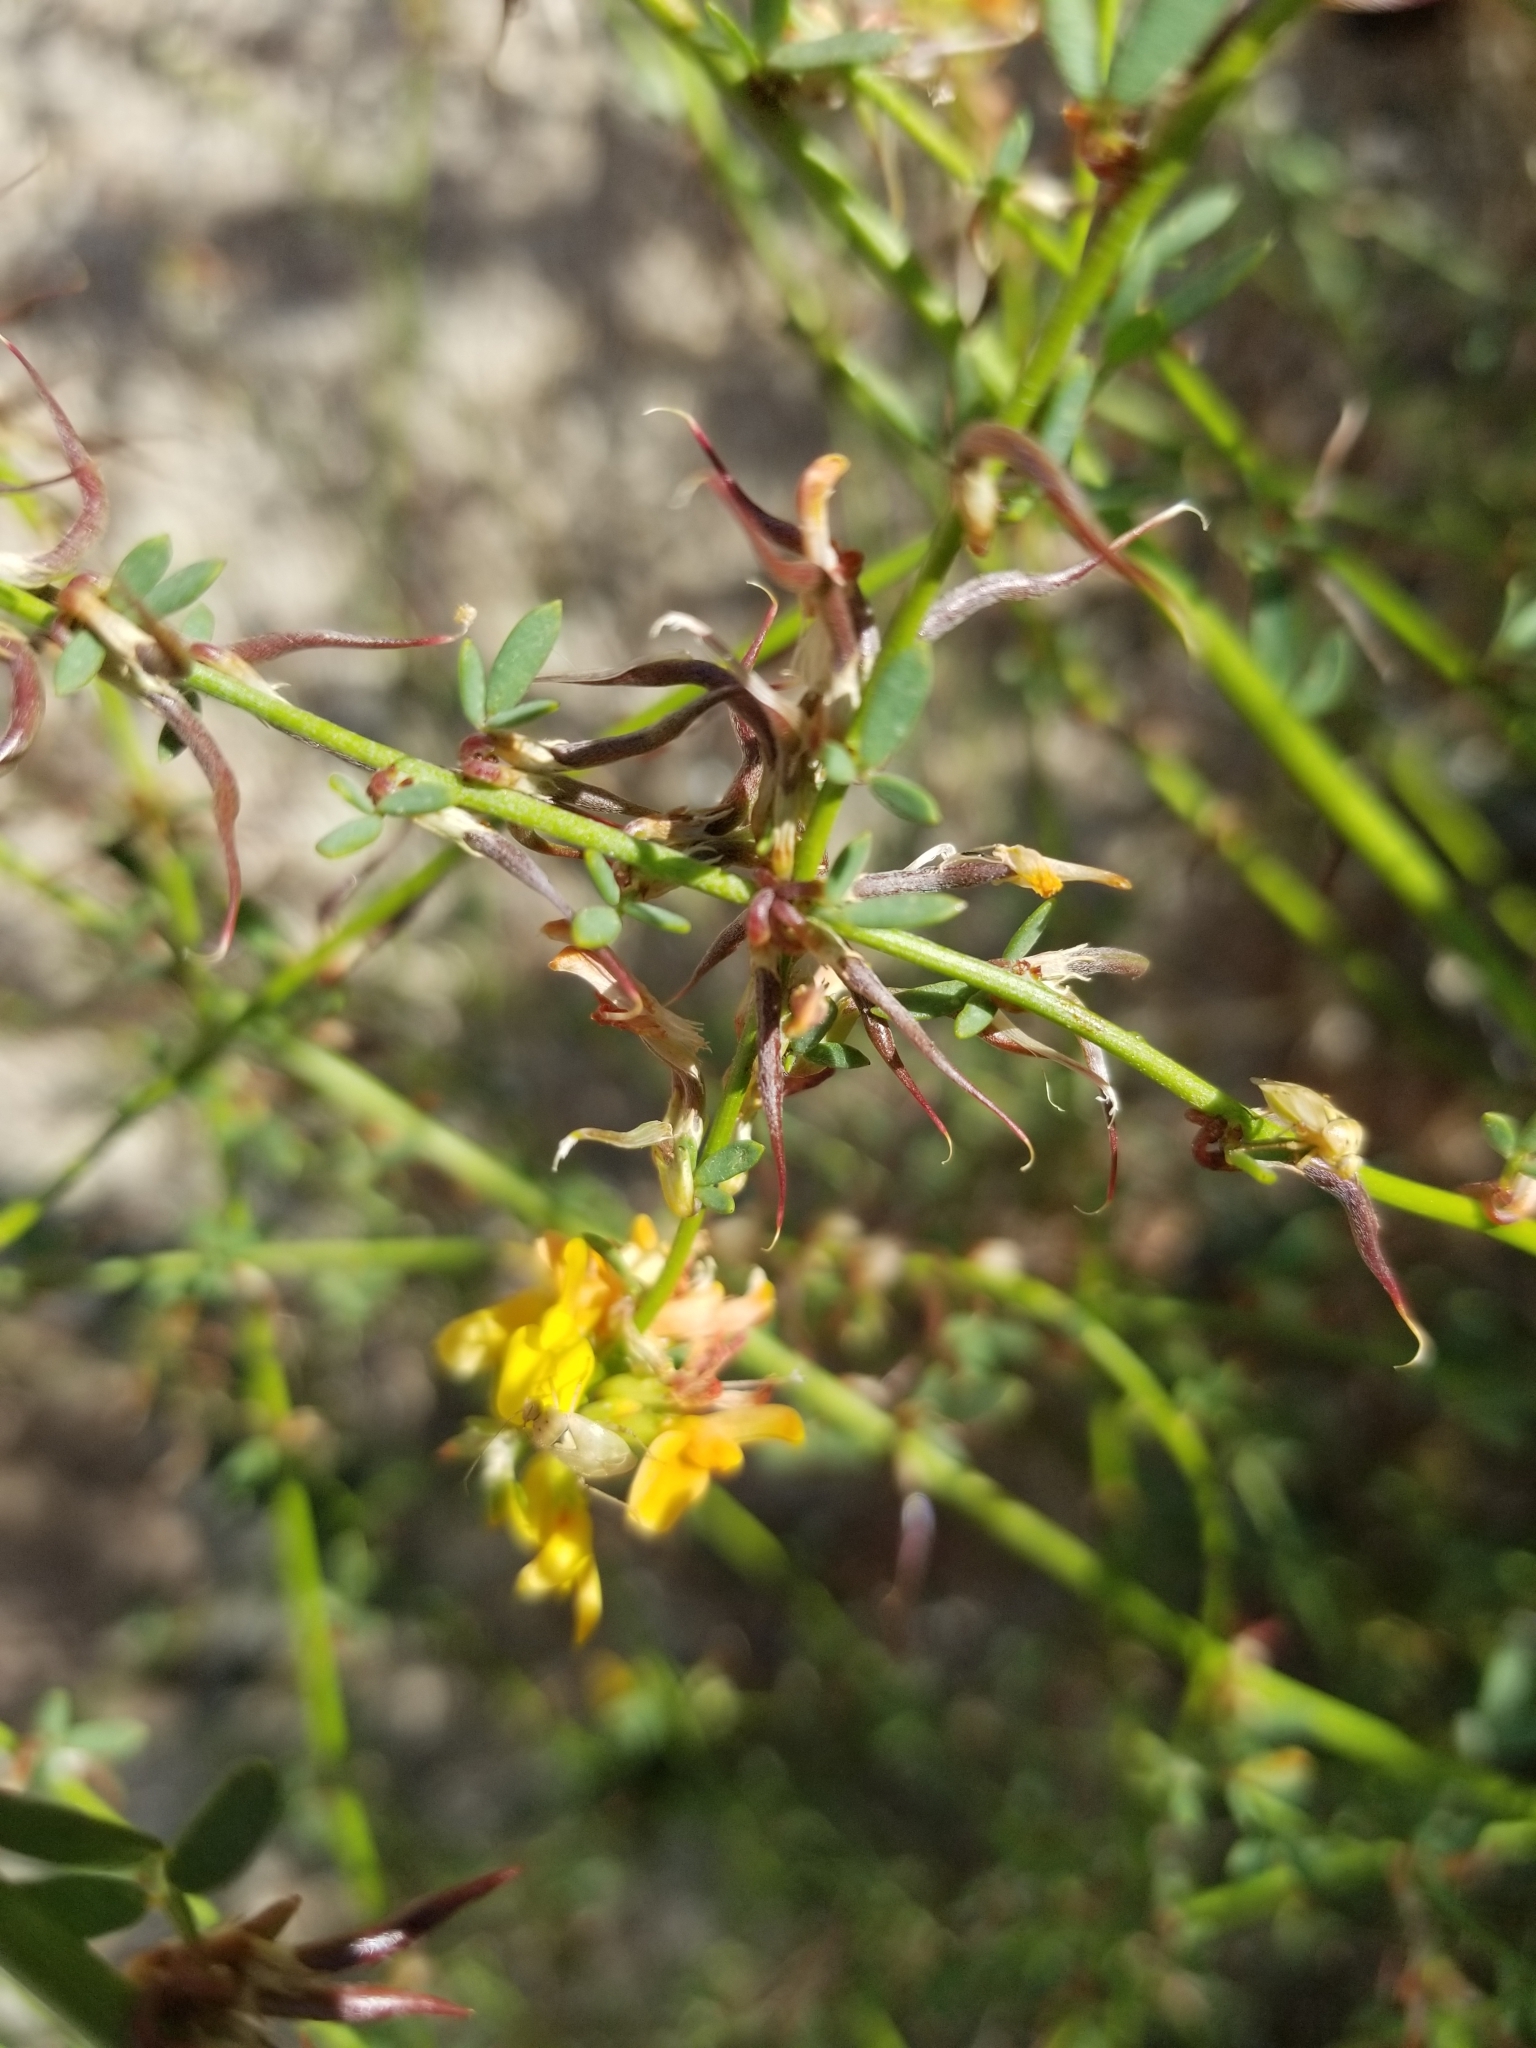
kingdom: Plantae
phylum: Tracheophyta
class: Magnoliopsida
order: Fabales
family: Fabaceae
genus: Acmispon
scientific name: Acmispon glaber
